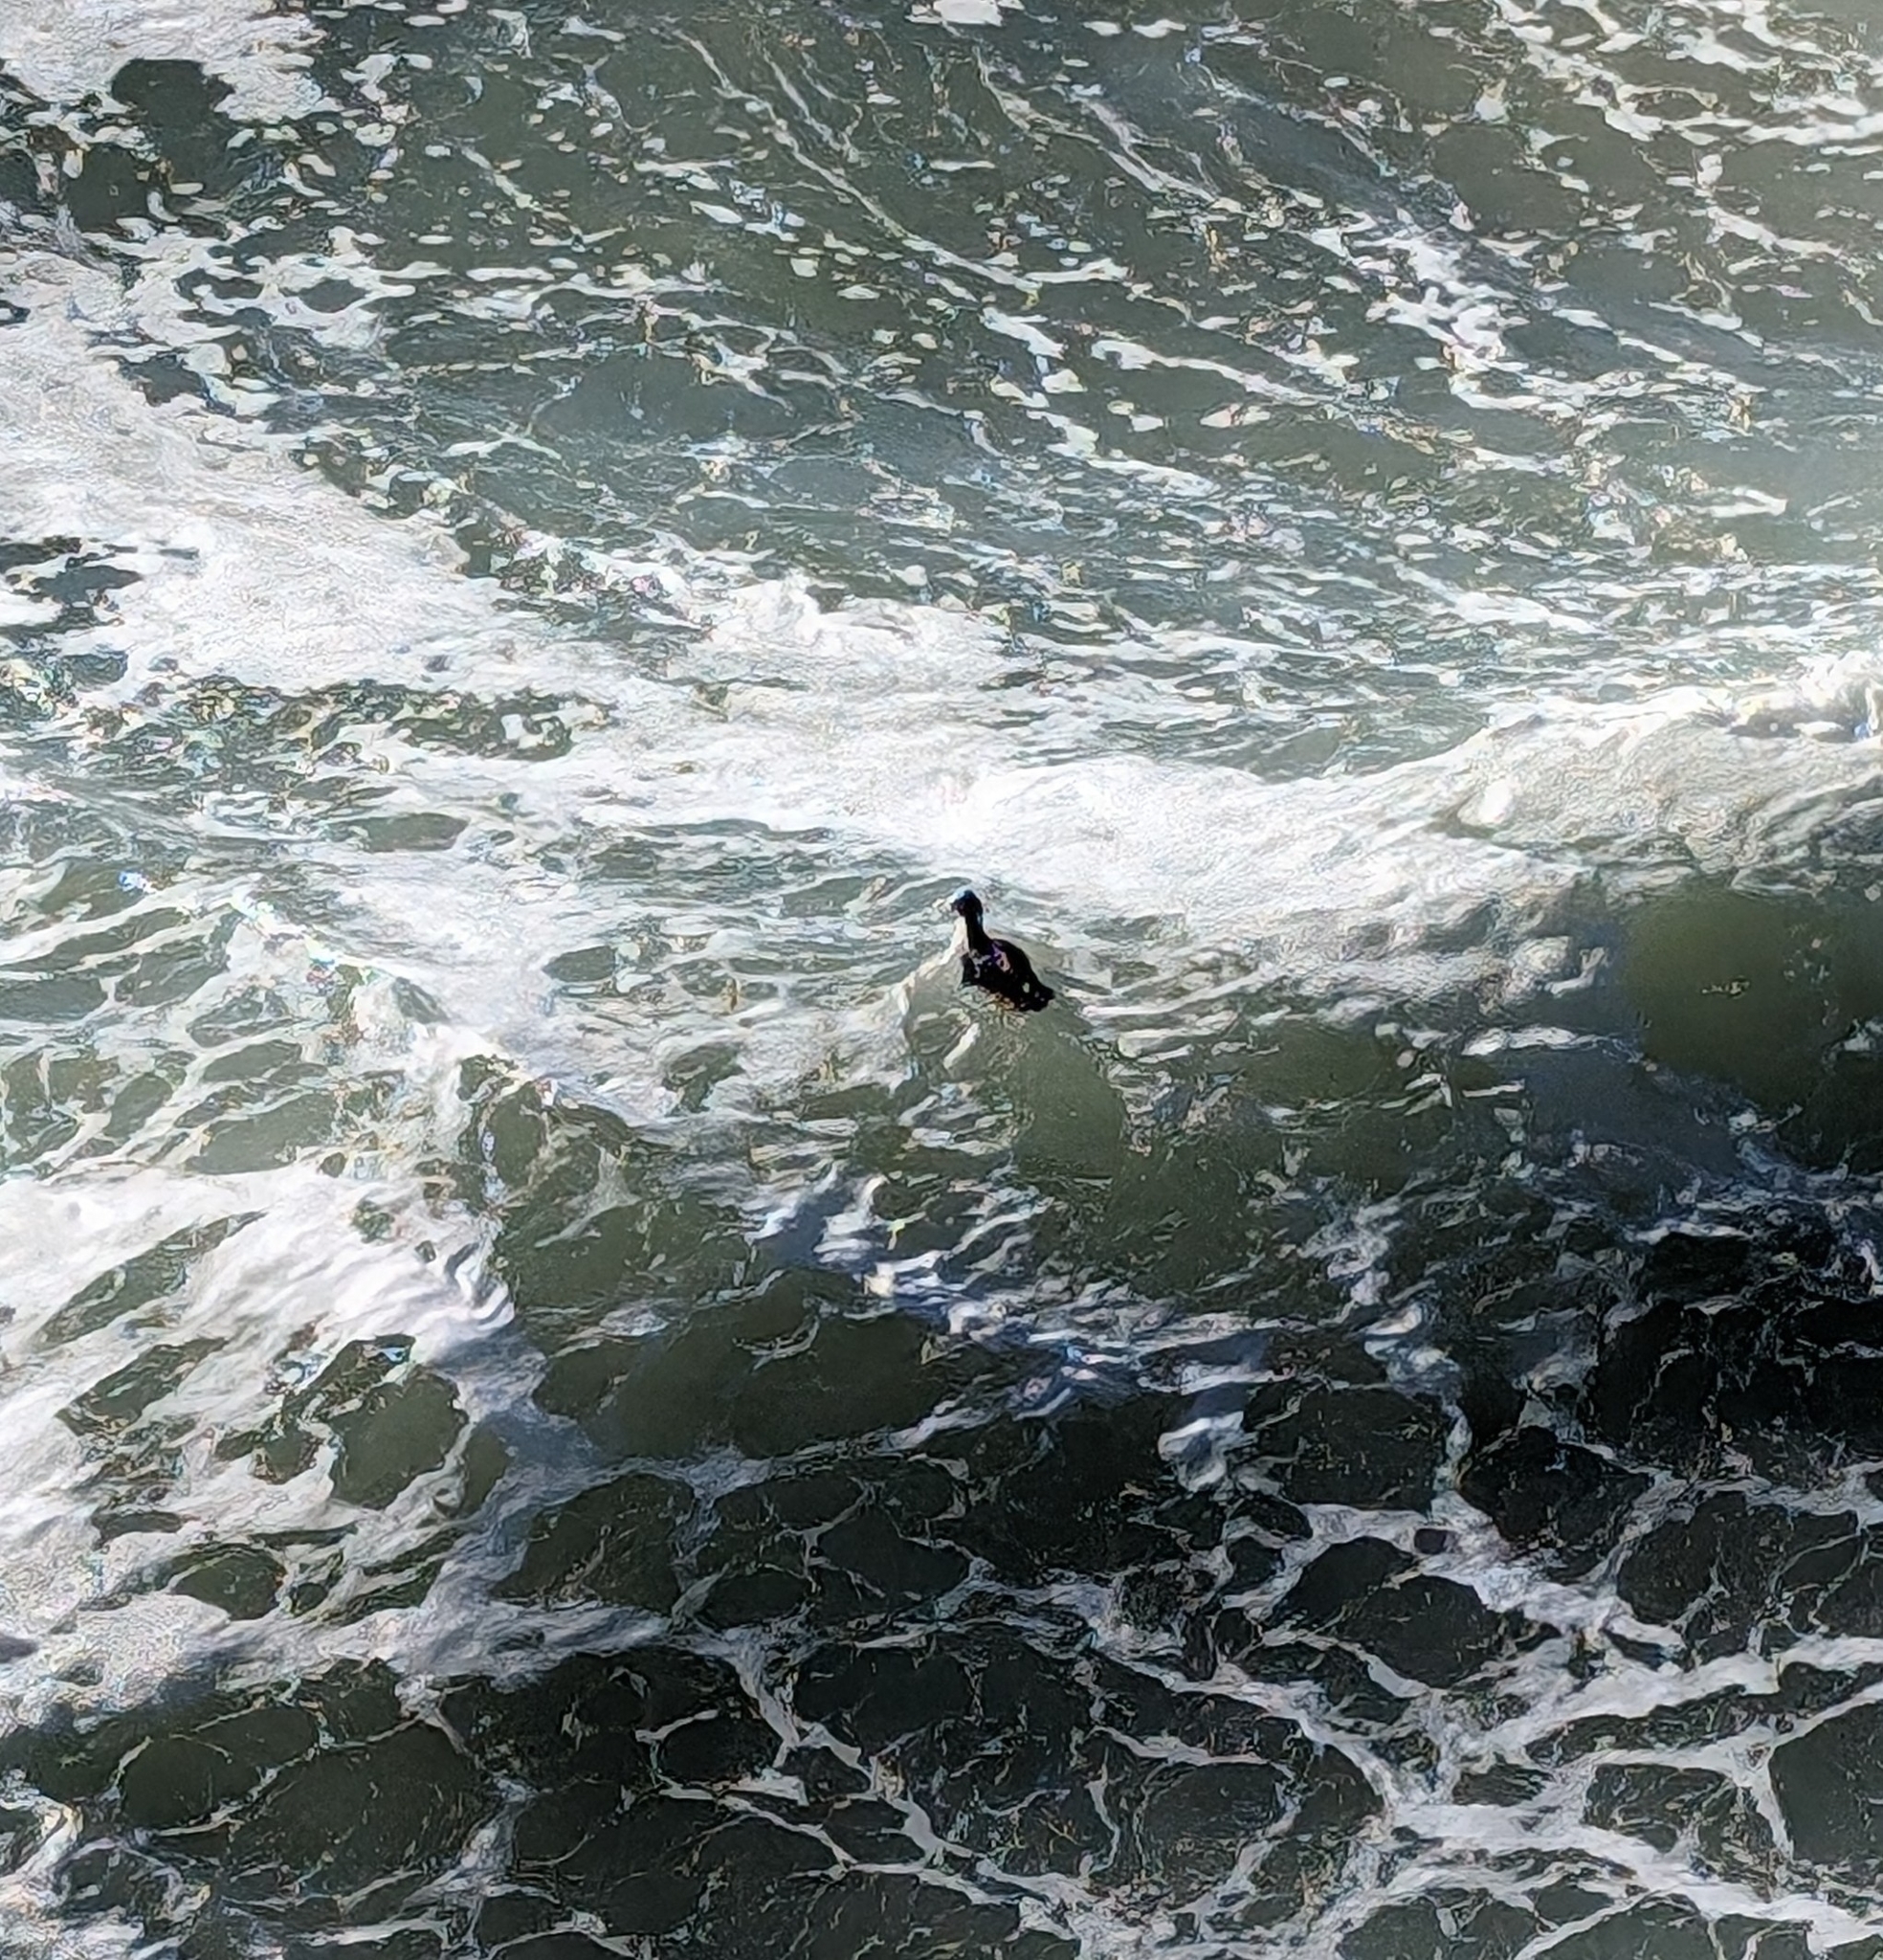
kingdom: Animalia
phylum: Chordata
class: Aves
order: Anseriformes
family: Anatidae
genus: Melanitta
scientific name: Melanitta perspicillata
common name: Surf scoter
